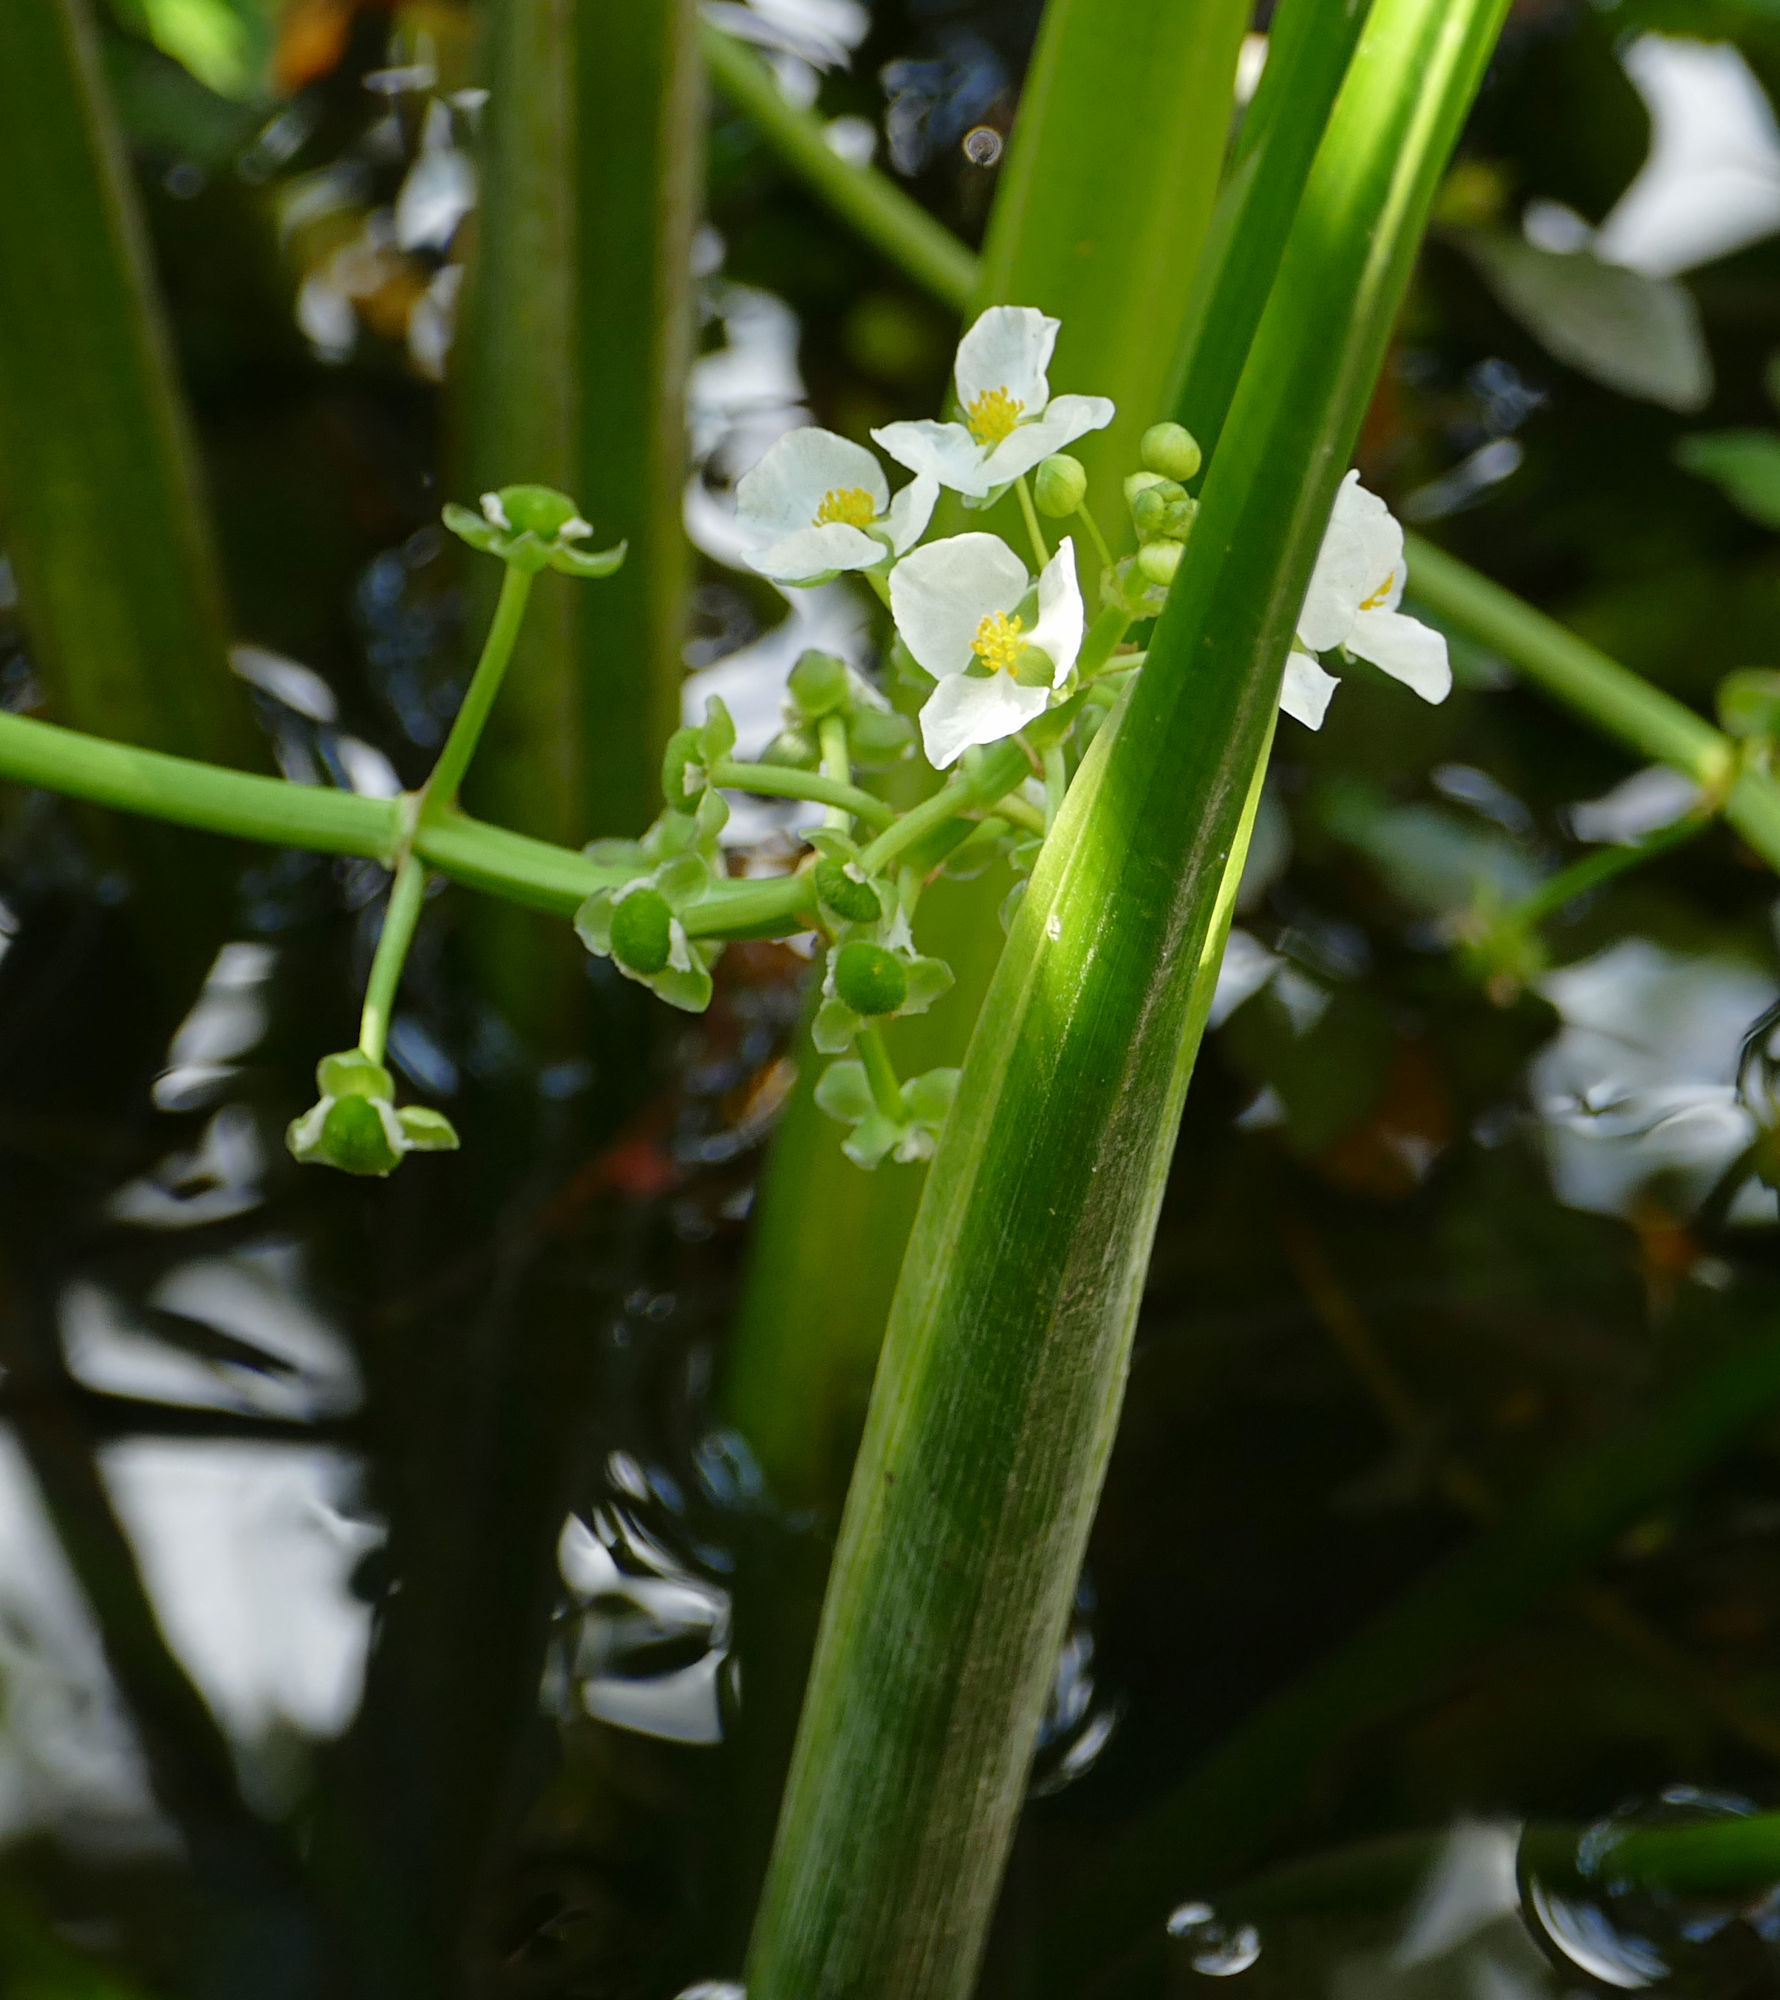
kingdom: Plantae
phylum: Tracheophyta
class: Liliopsida
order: Alismatales
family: Alismataceae
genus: Sagittaria
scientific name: Sagittaria platyphylla
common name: Broad-leaf arrowhead
